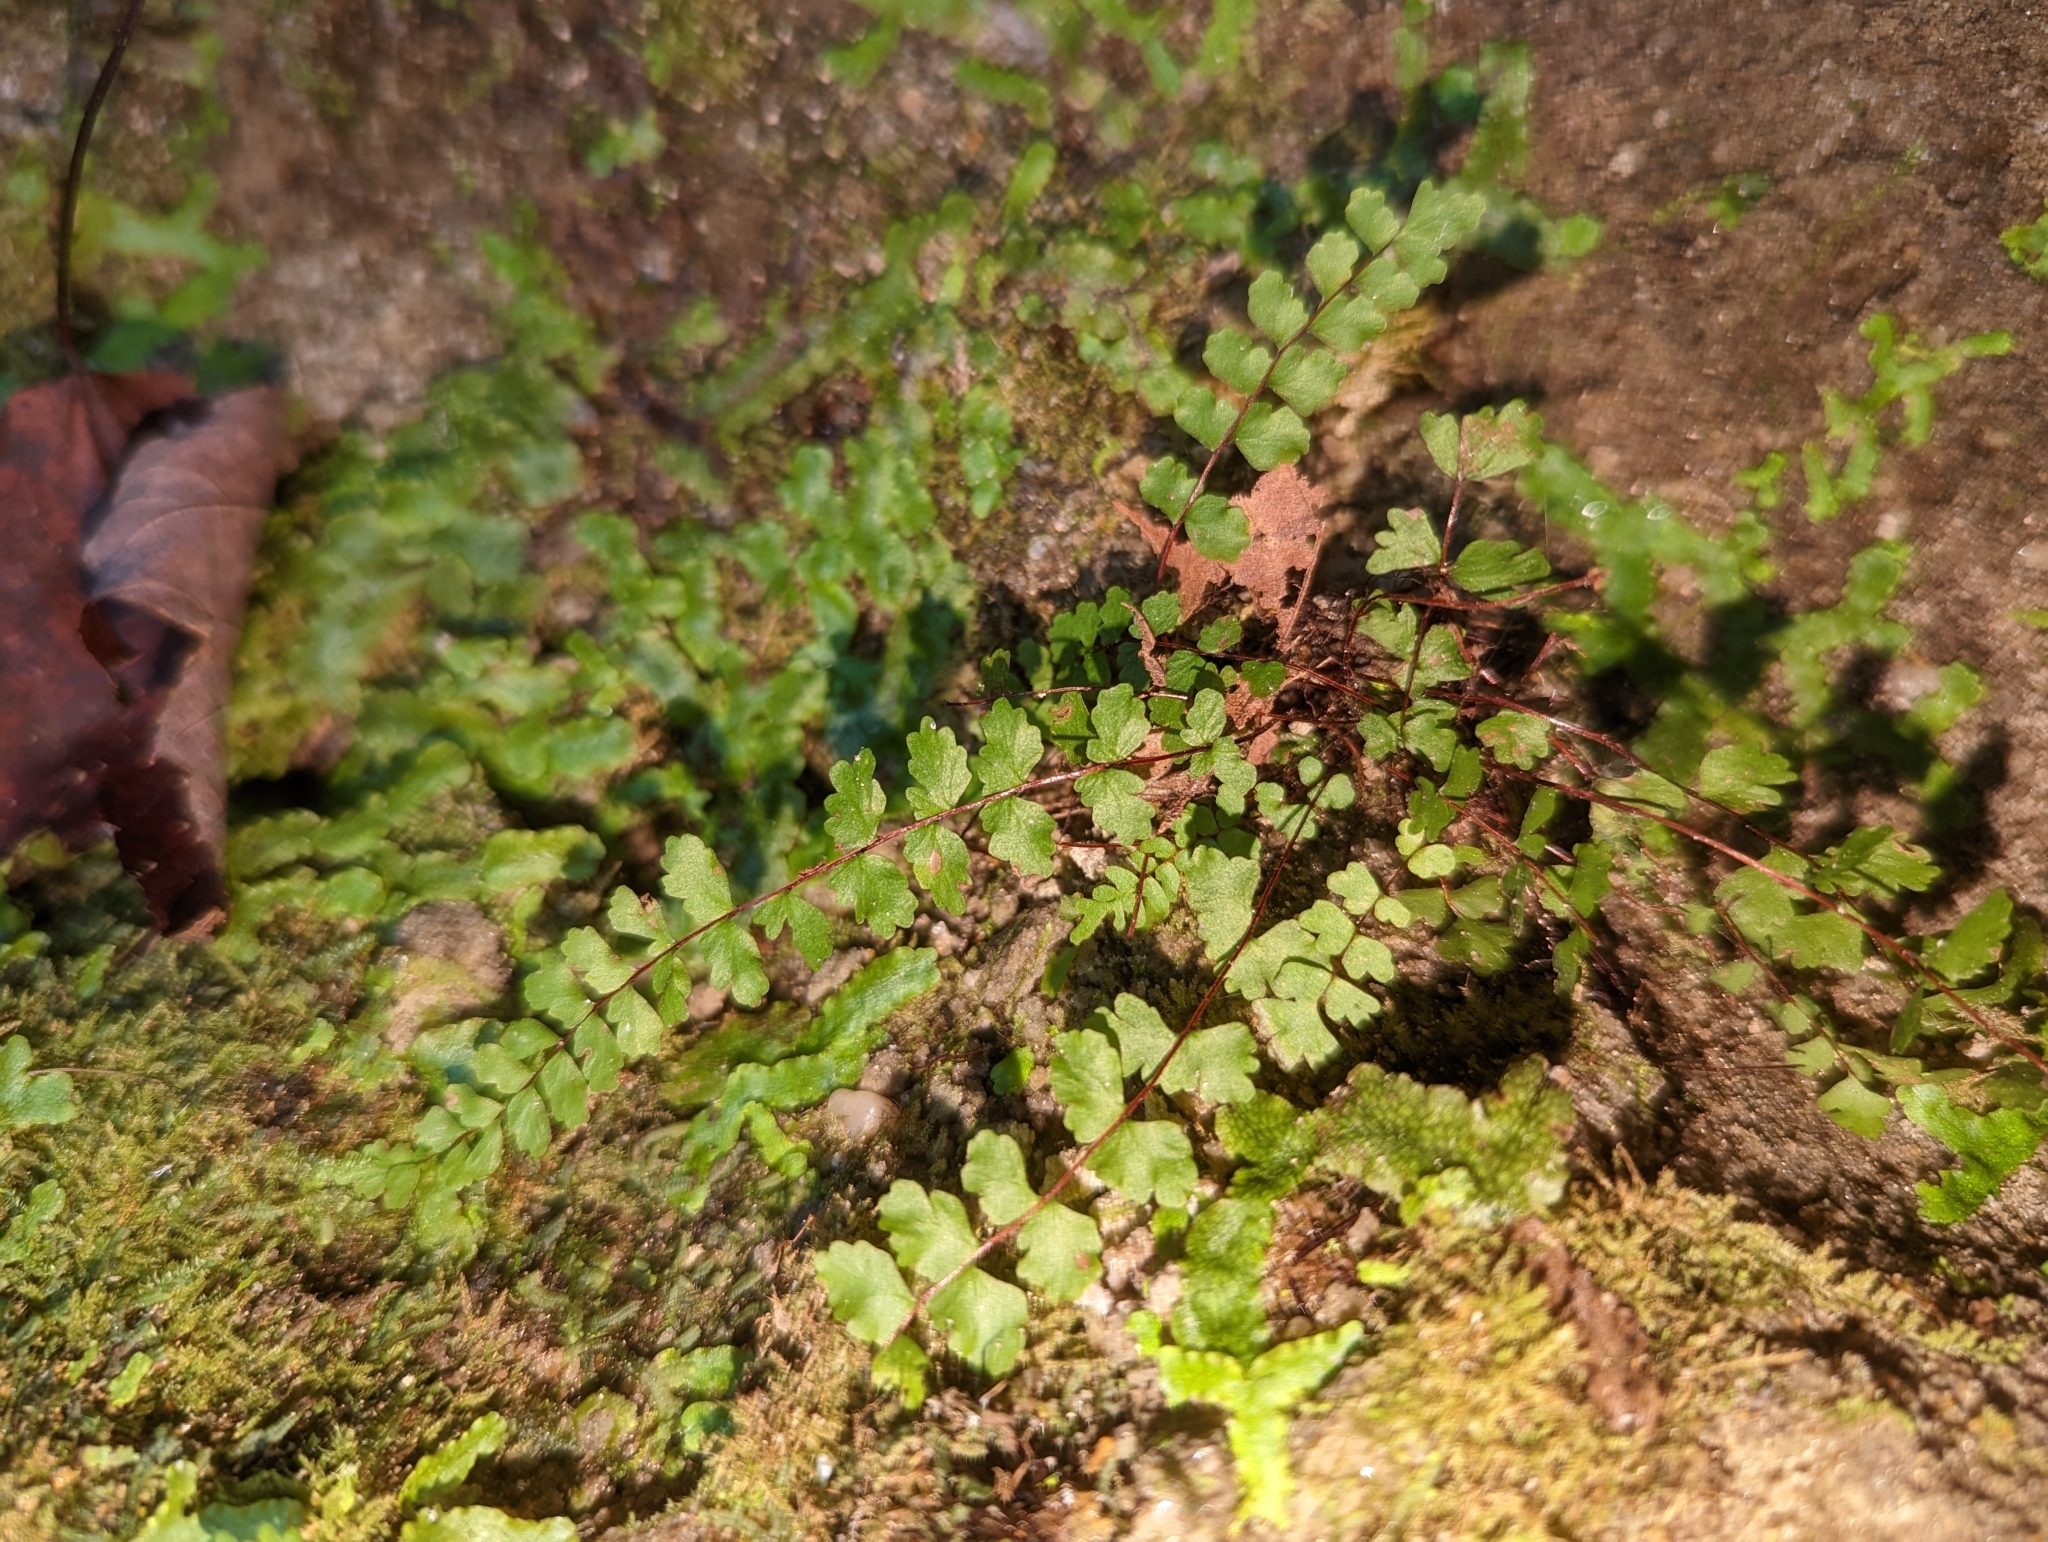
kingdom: Plantae
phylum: Tracheophyta
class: Polypodiopsida
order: Polypodiales
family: Aspleniaceae
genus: Asplenium
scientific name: Asplenium trichomanes
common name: Maidenhair spleenwort
